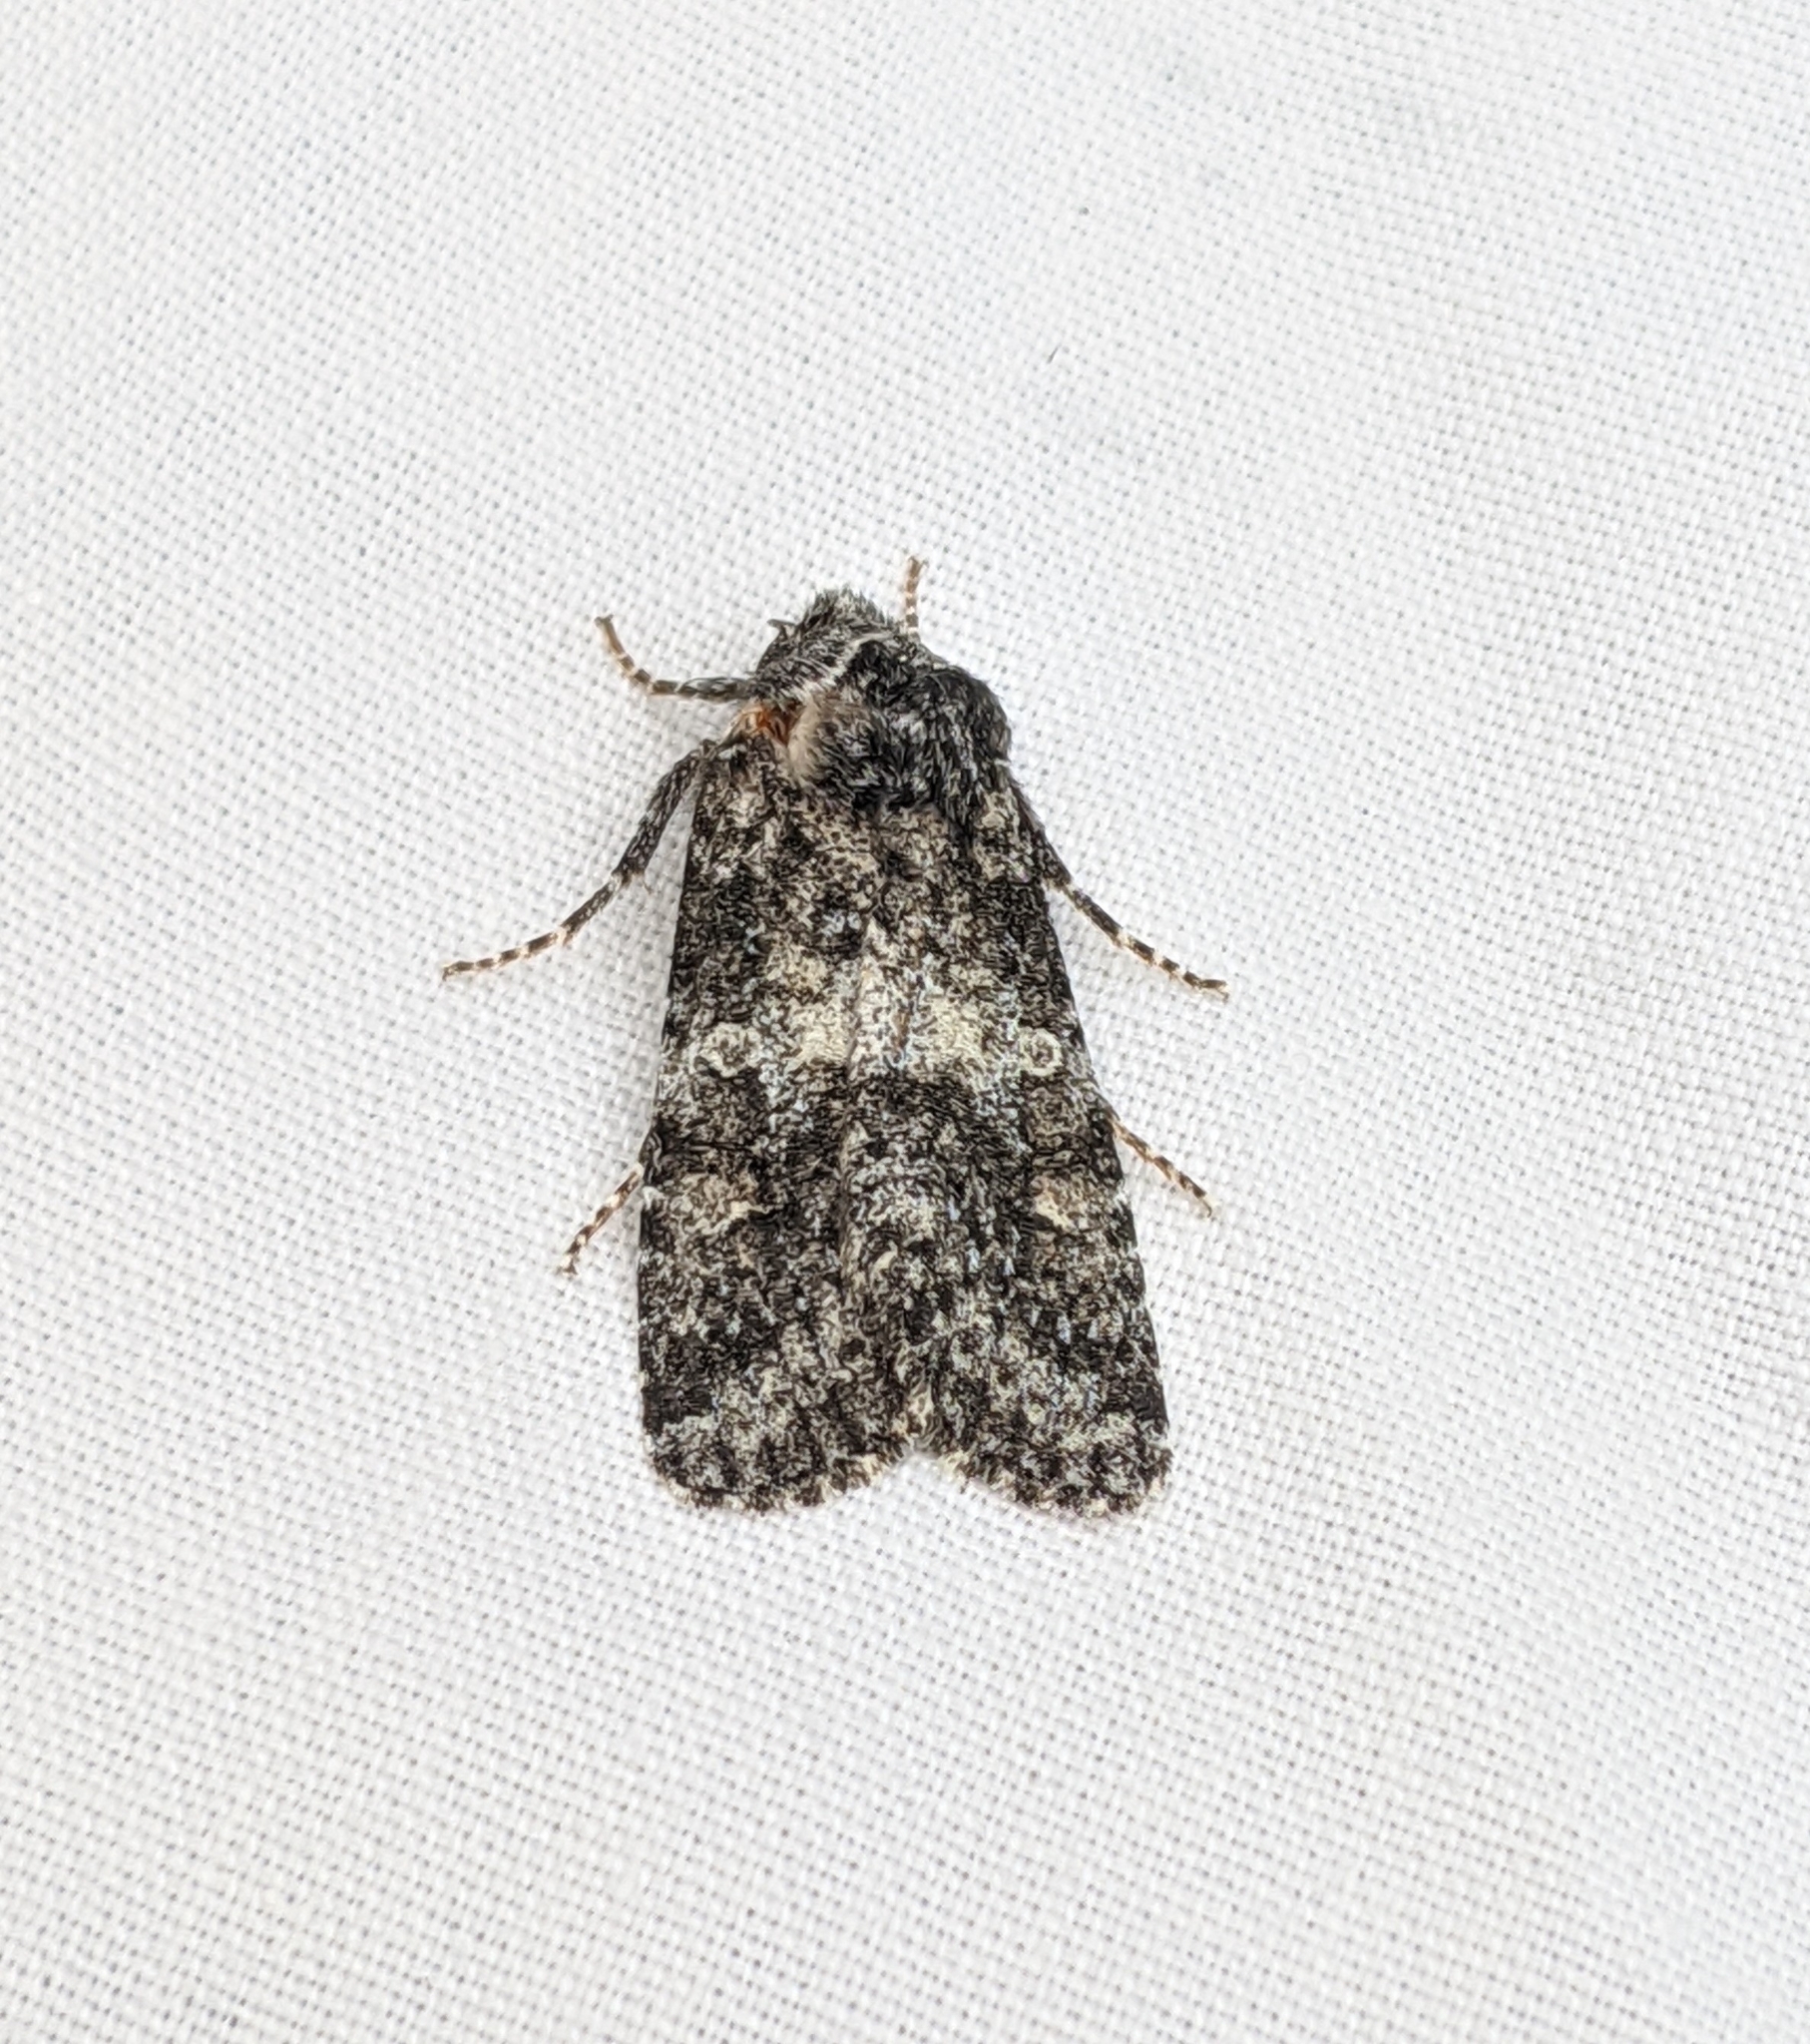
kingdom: Animalia
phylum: Arthropoda
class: Insecta
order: Lepidoptera
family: Noctuidae
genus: Egira
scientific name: Egira dolosa
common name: Lined black aspen cat.
